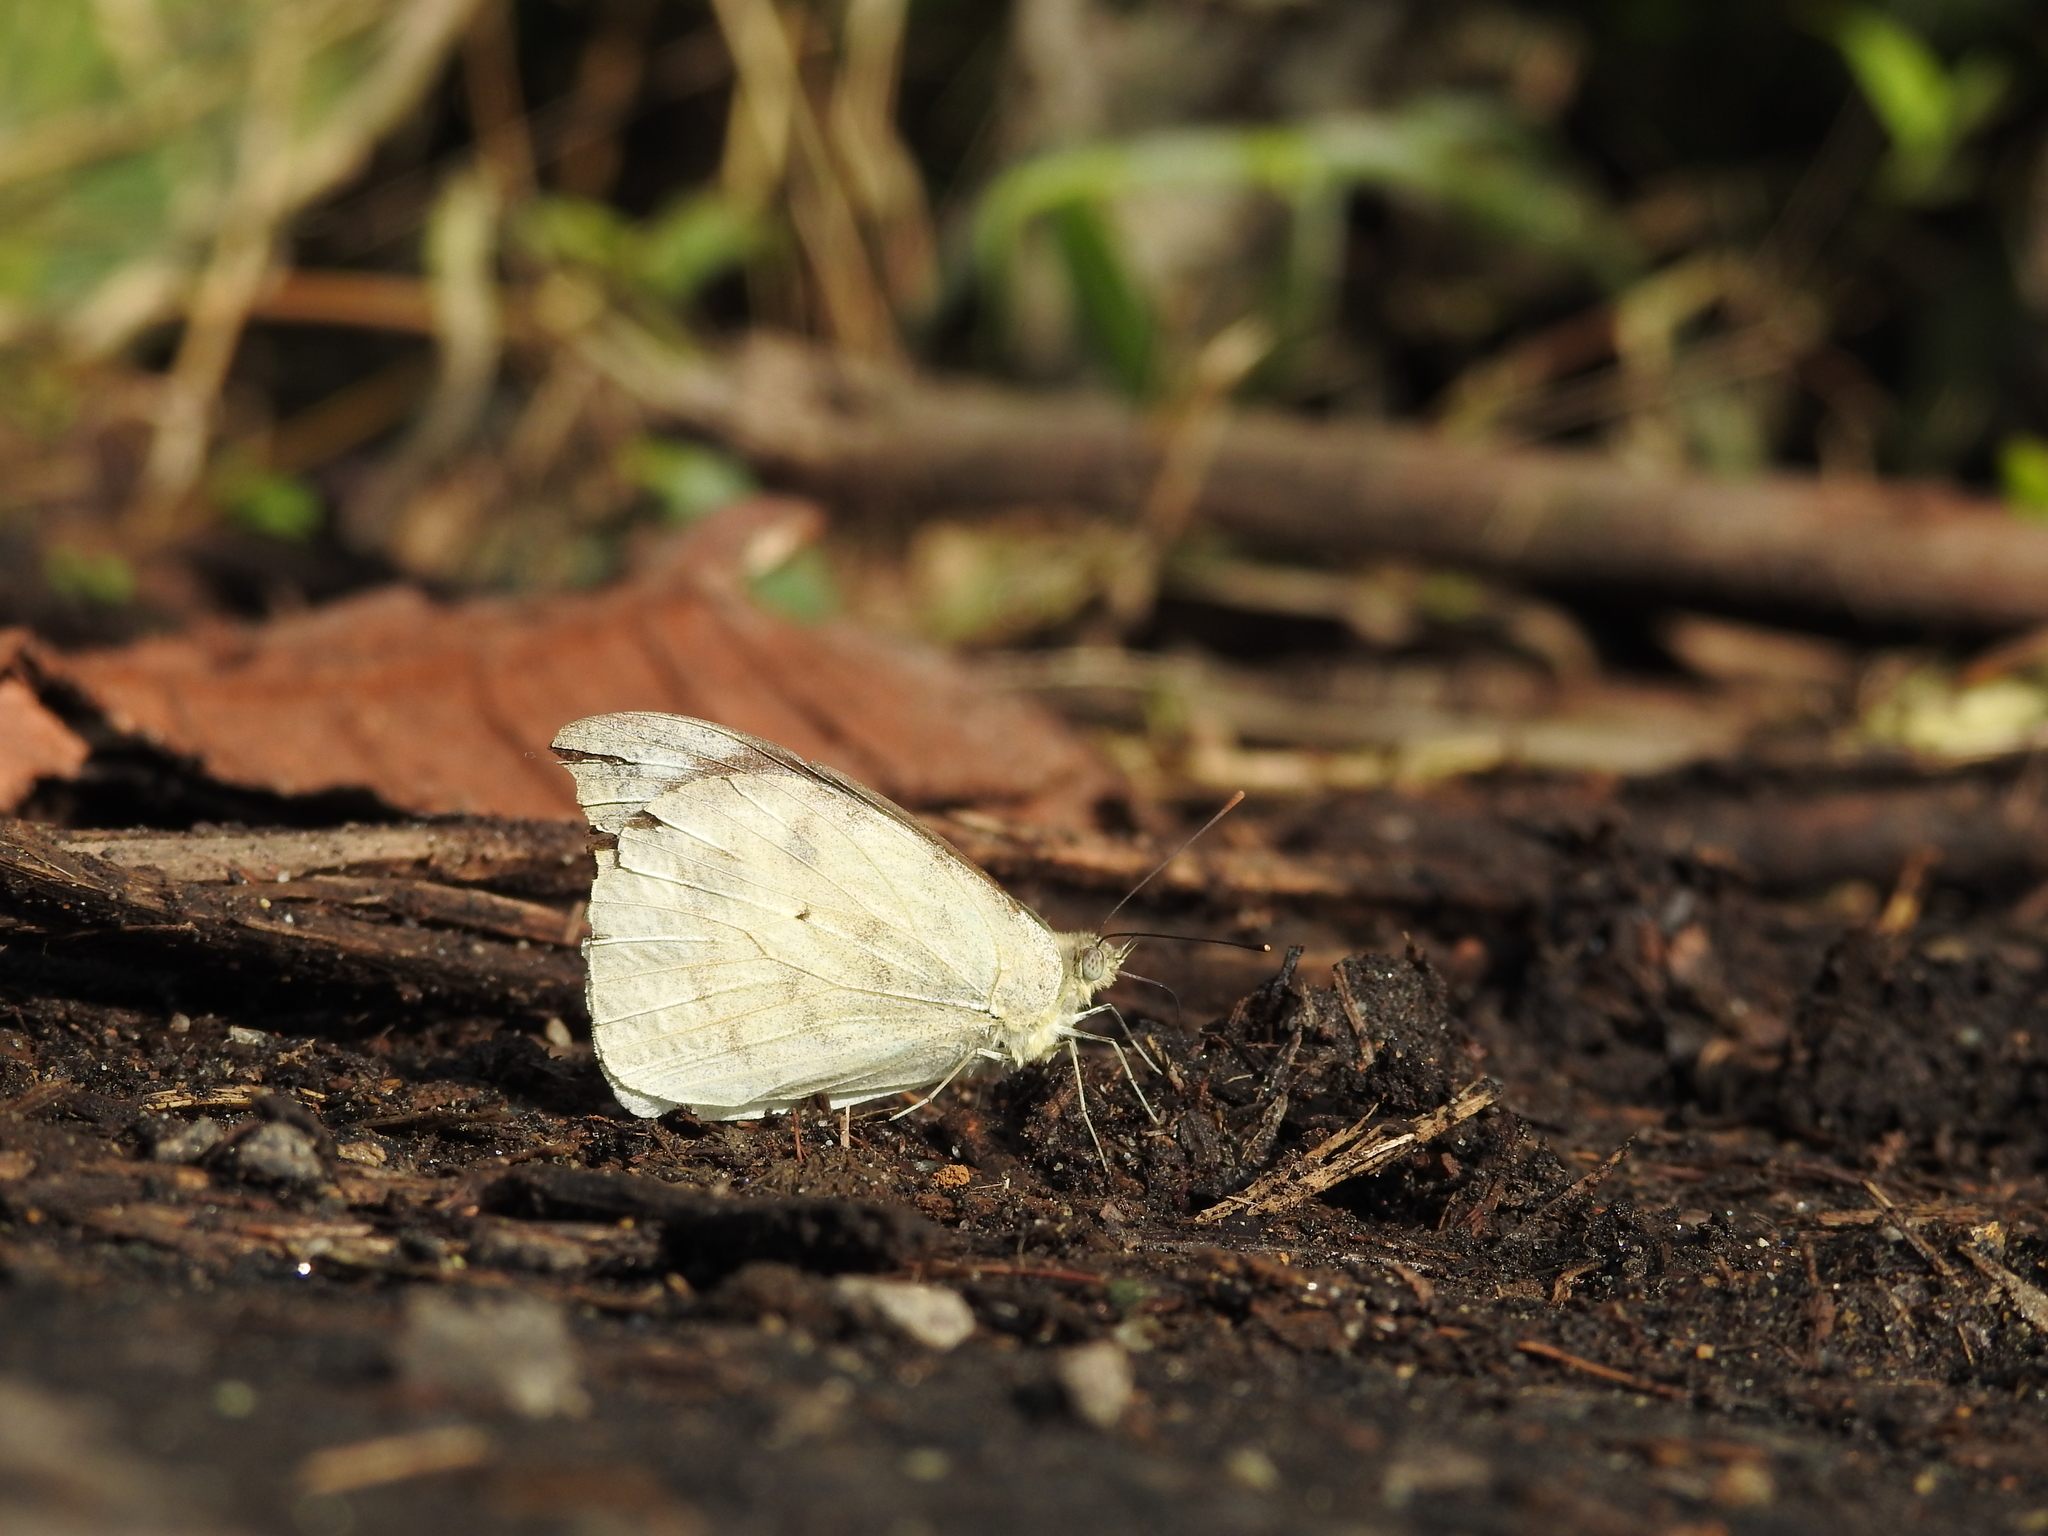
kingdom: Animalia
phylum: Arthropoda
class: Insecta
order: Lepidoptera
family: Pieridae
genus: Appias
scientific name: Appias lalage
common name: Spot puffin
